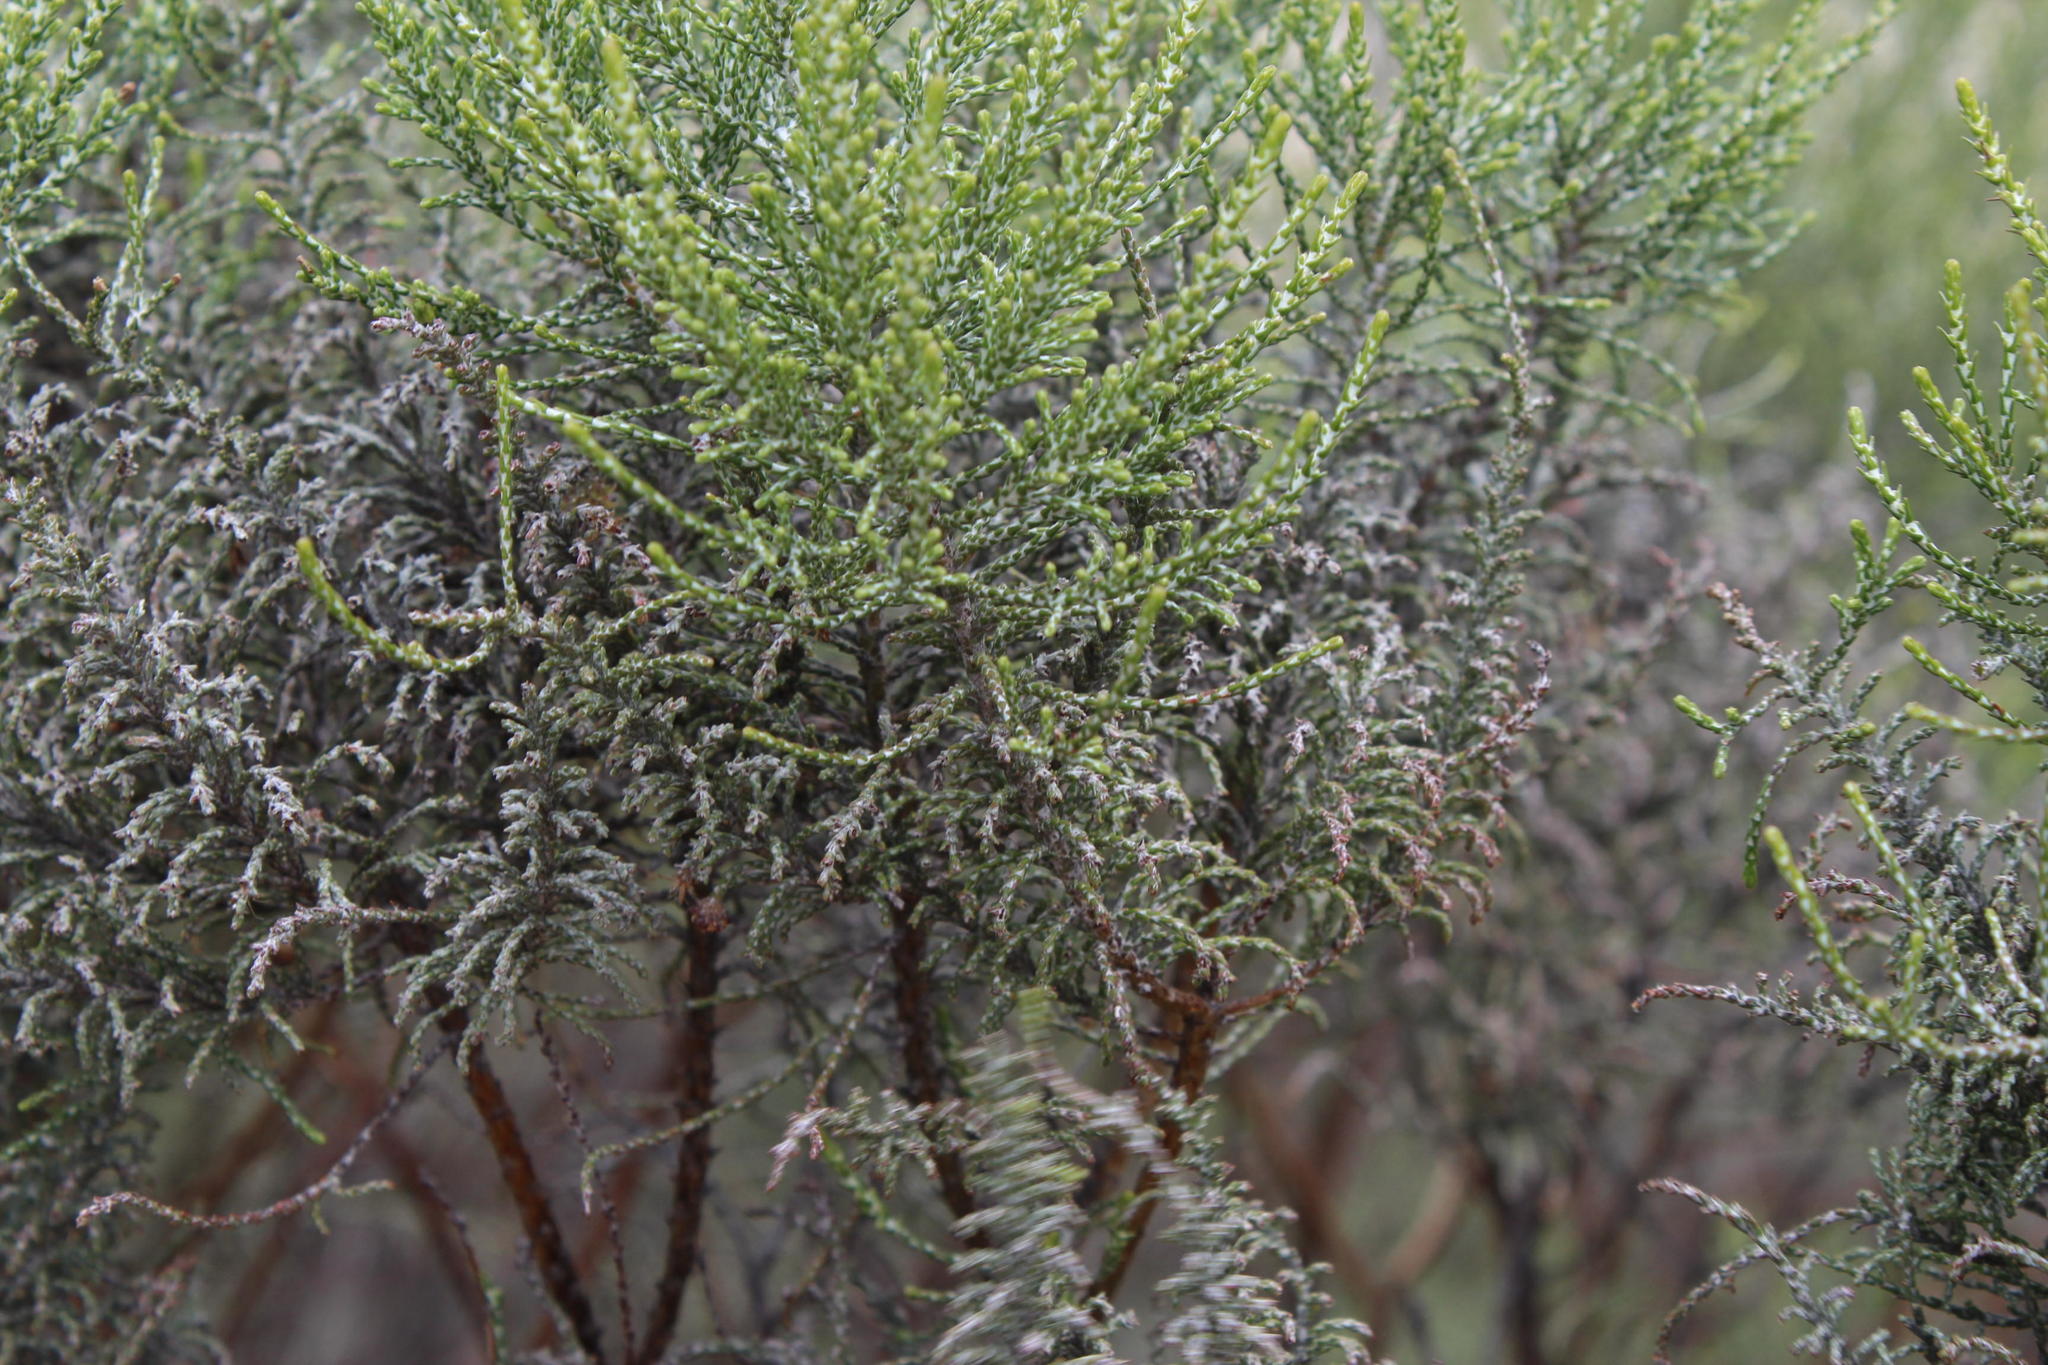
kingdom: Plantae
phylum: Tracheophyta
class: Magnoliopsida
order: Asterales
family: Asteraceae
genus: Dicerothamnus
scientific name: Dicerothamnus rhinocerotis
